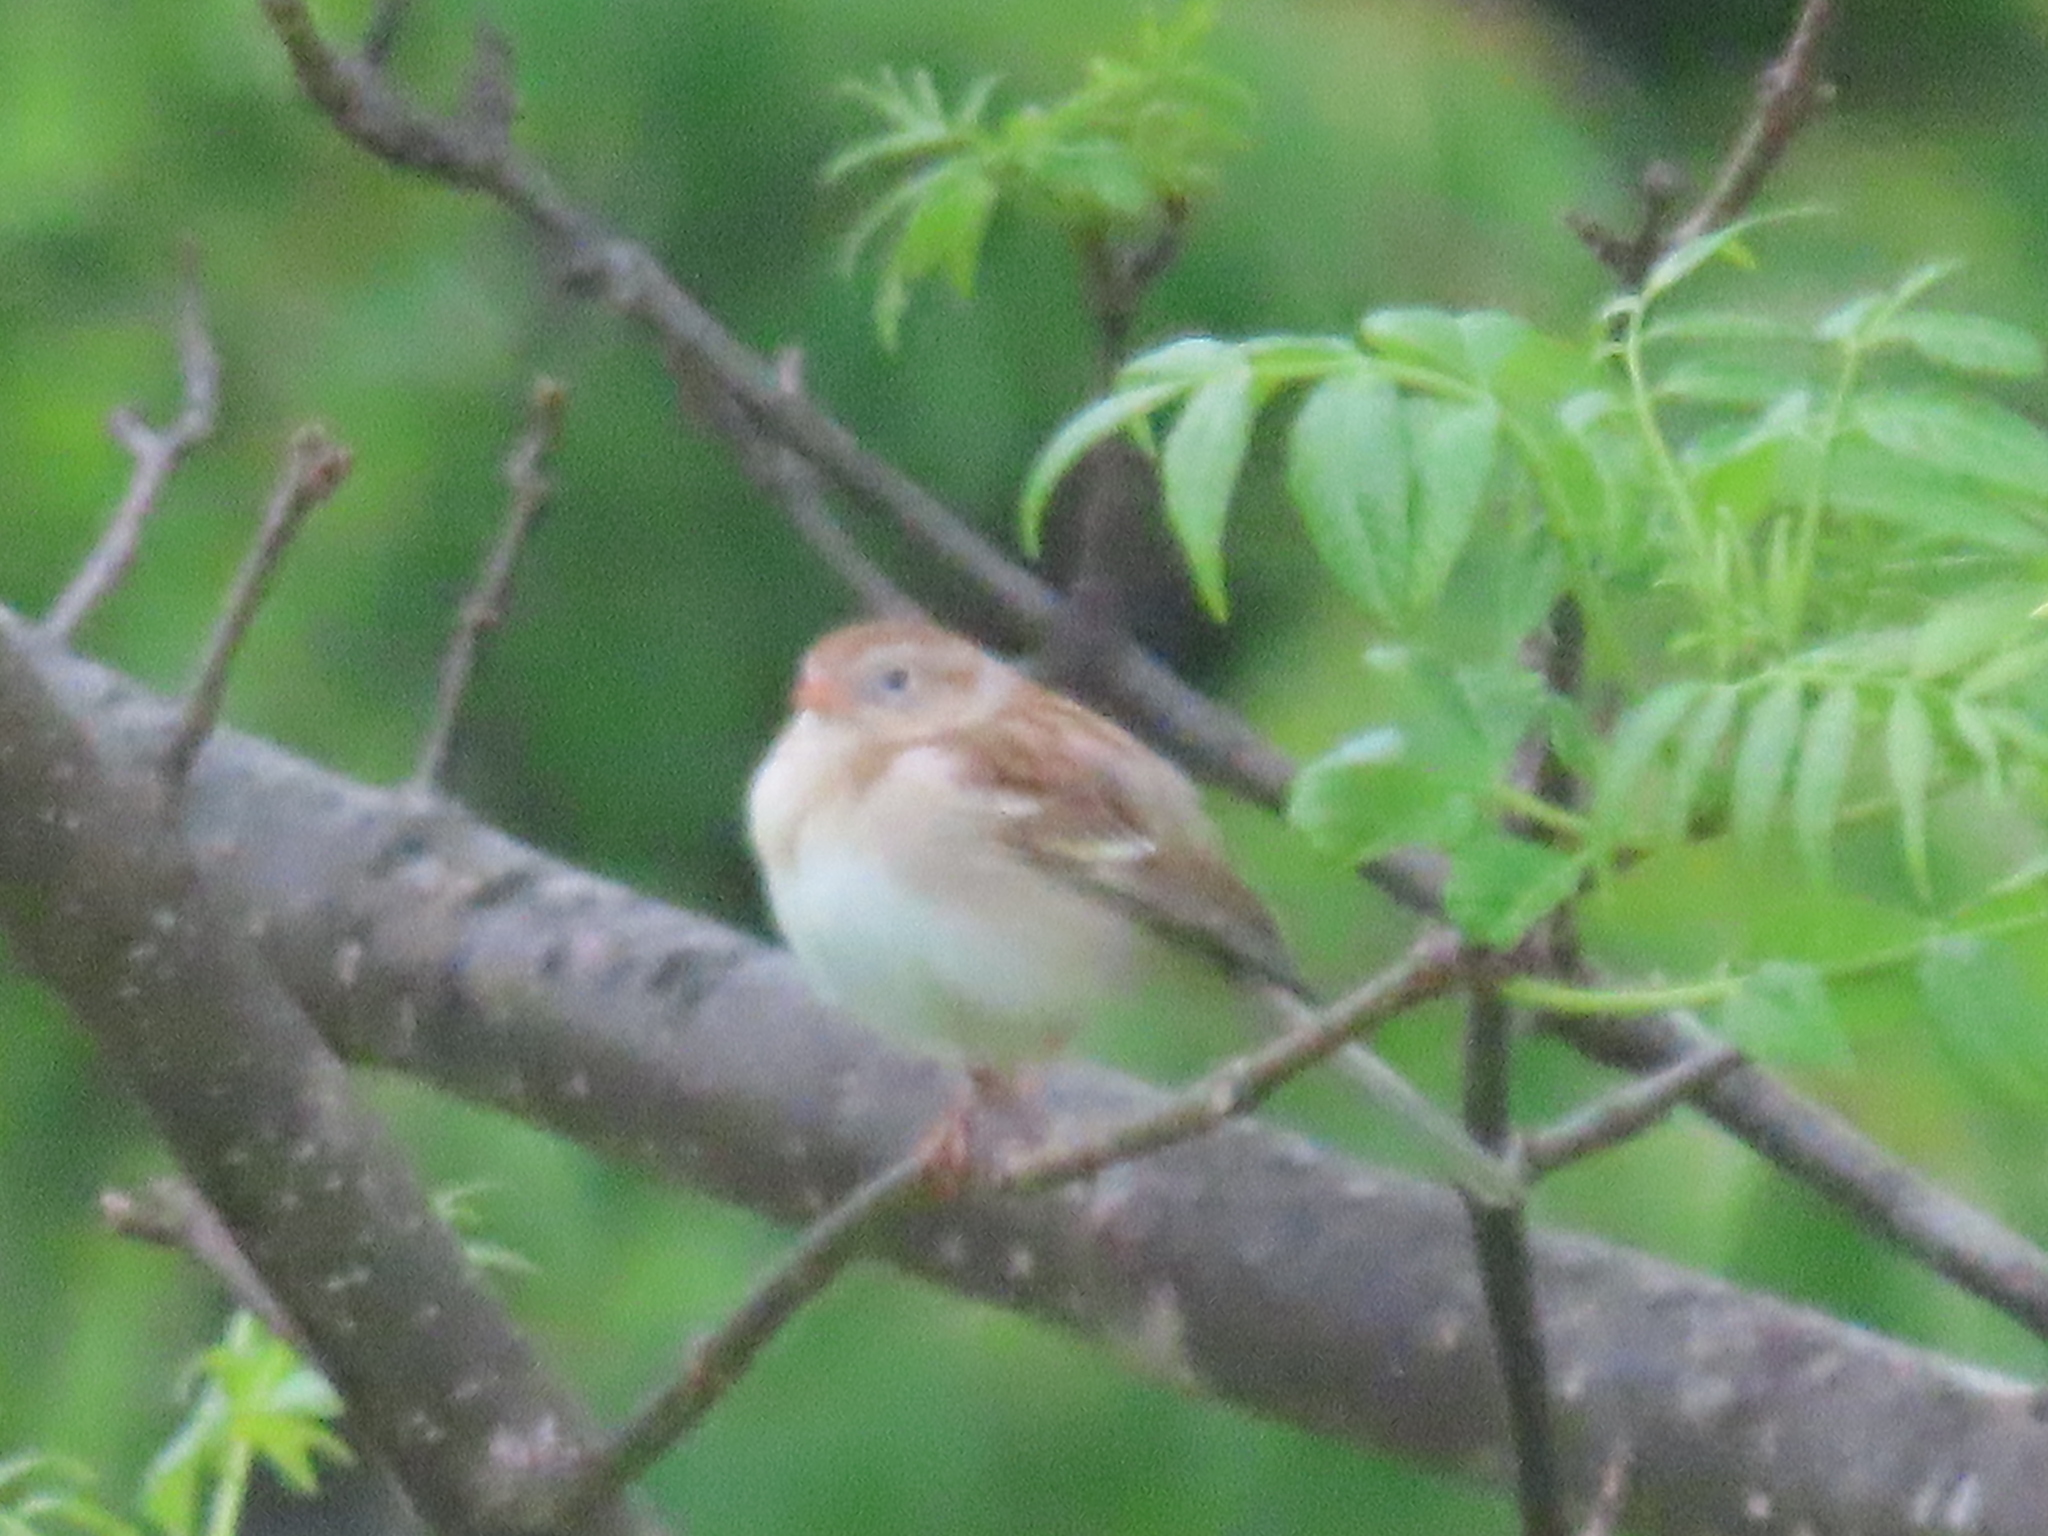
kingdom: Animalia
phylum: Chordata
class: Aves
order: Passeriformes
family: Passerellidae
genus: Spizella
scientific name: Spizella pusilla
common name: Field sparrow
